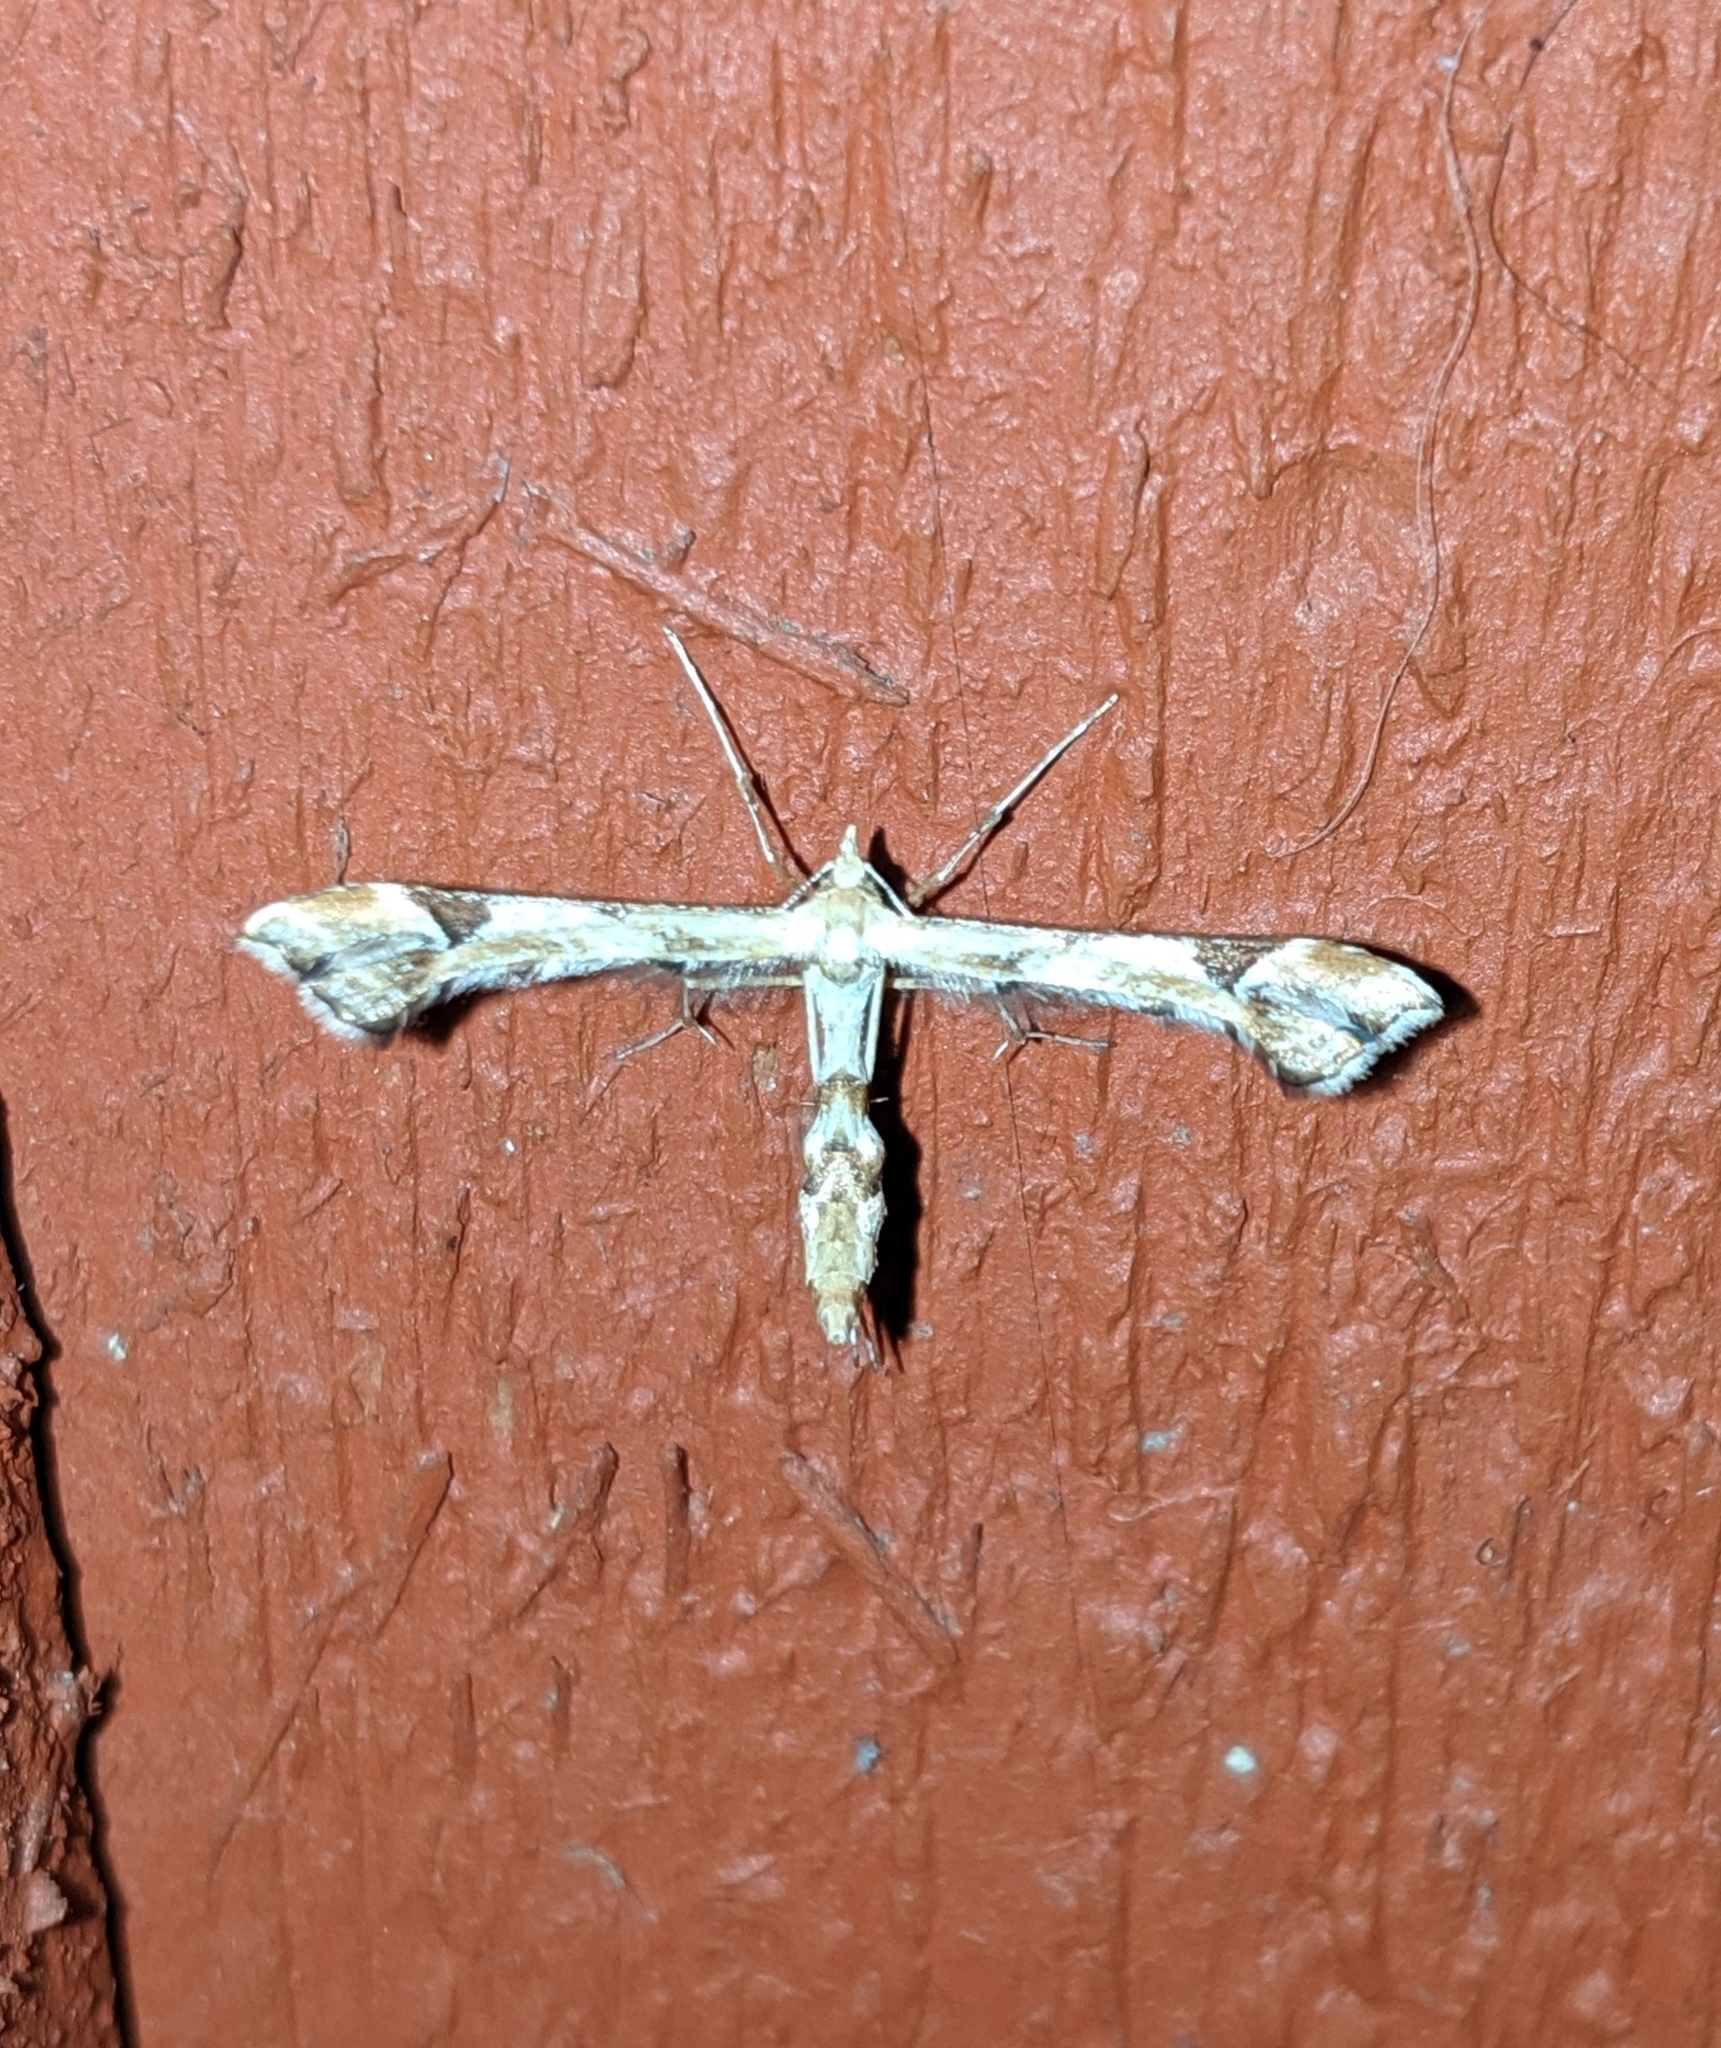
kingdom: Animalia
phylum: Arthropoda
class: Insecta
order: Lepidoptera
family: Pterophoridae
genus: Platyptilia
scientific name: Platyptilia carduidactylus
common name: Artichoke plume moth
